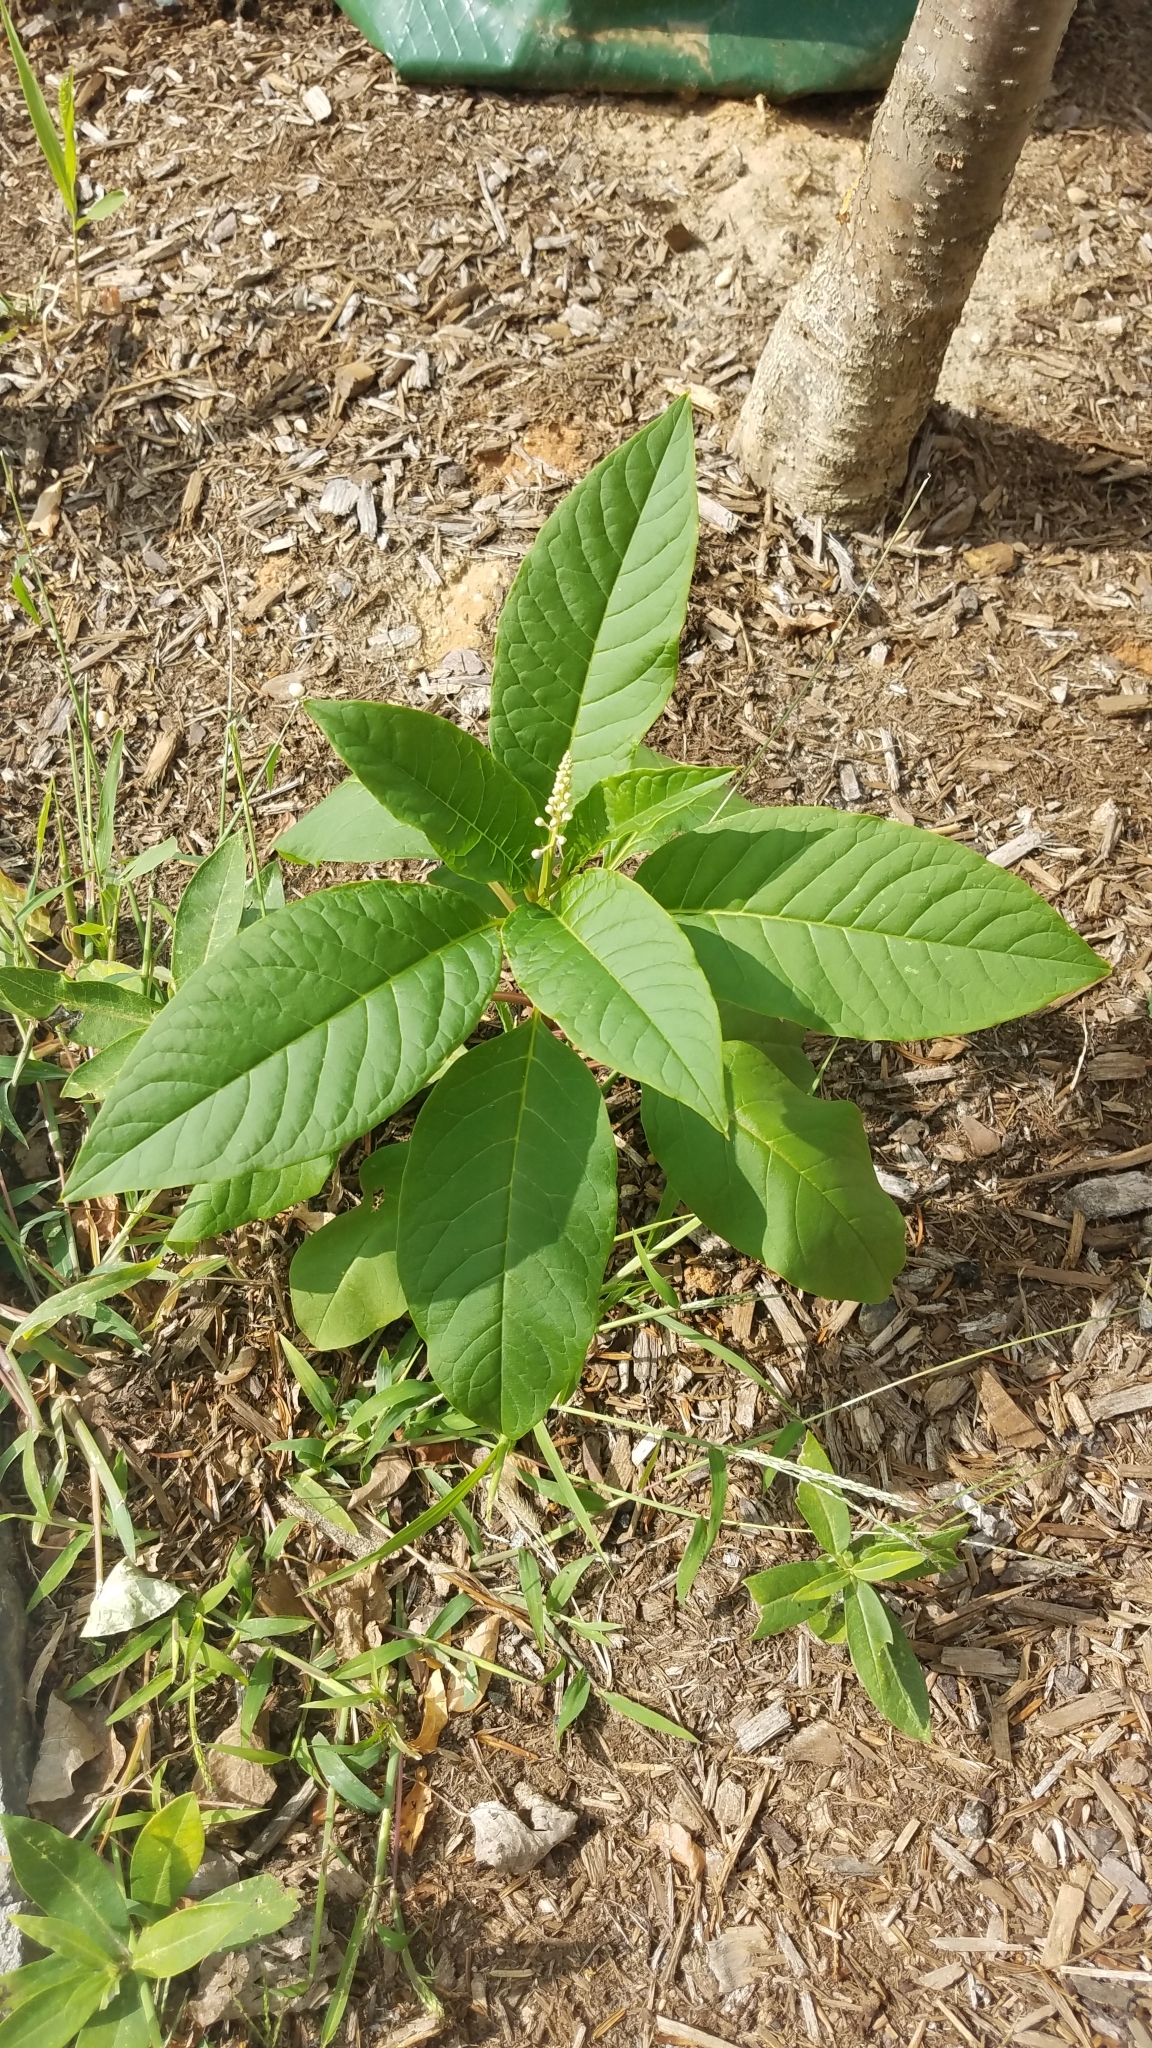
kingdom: Plantae
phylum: Tracheophyta
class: Magnoliopsida
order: Caryophyllales
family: Phytolaccaceae
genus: Phytolacca
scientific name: Phytolacca americana
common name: American pokeweed
